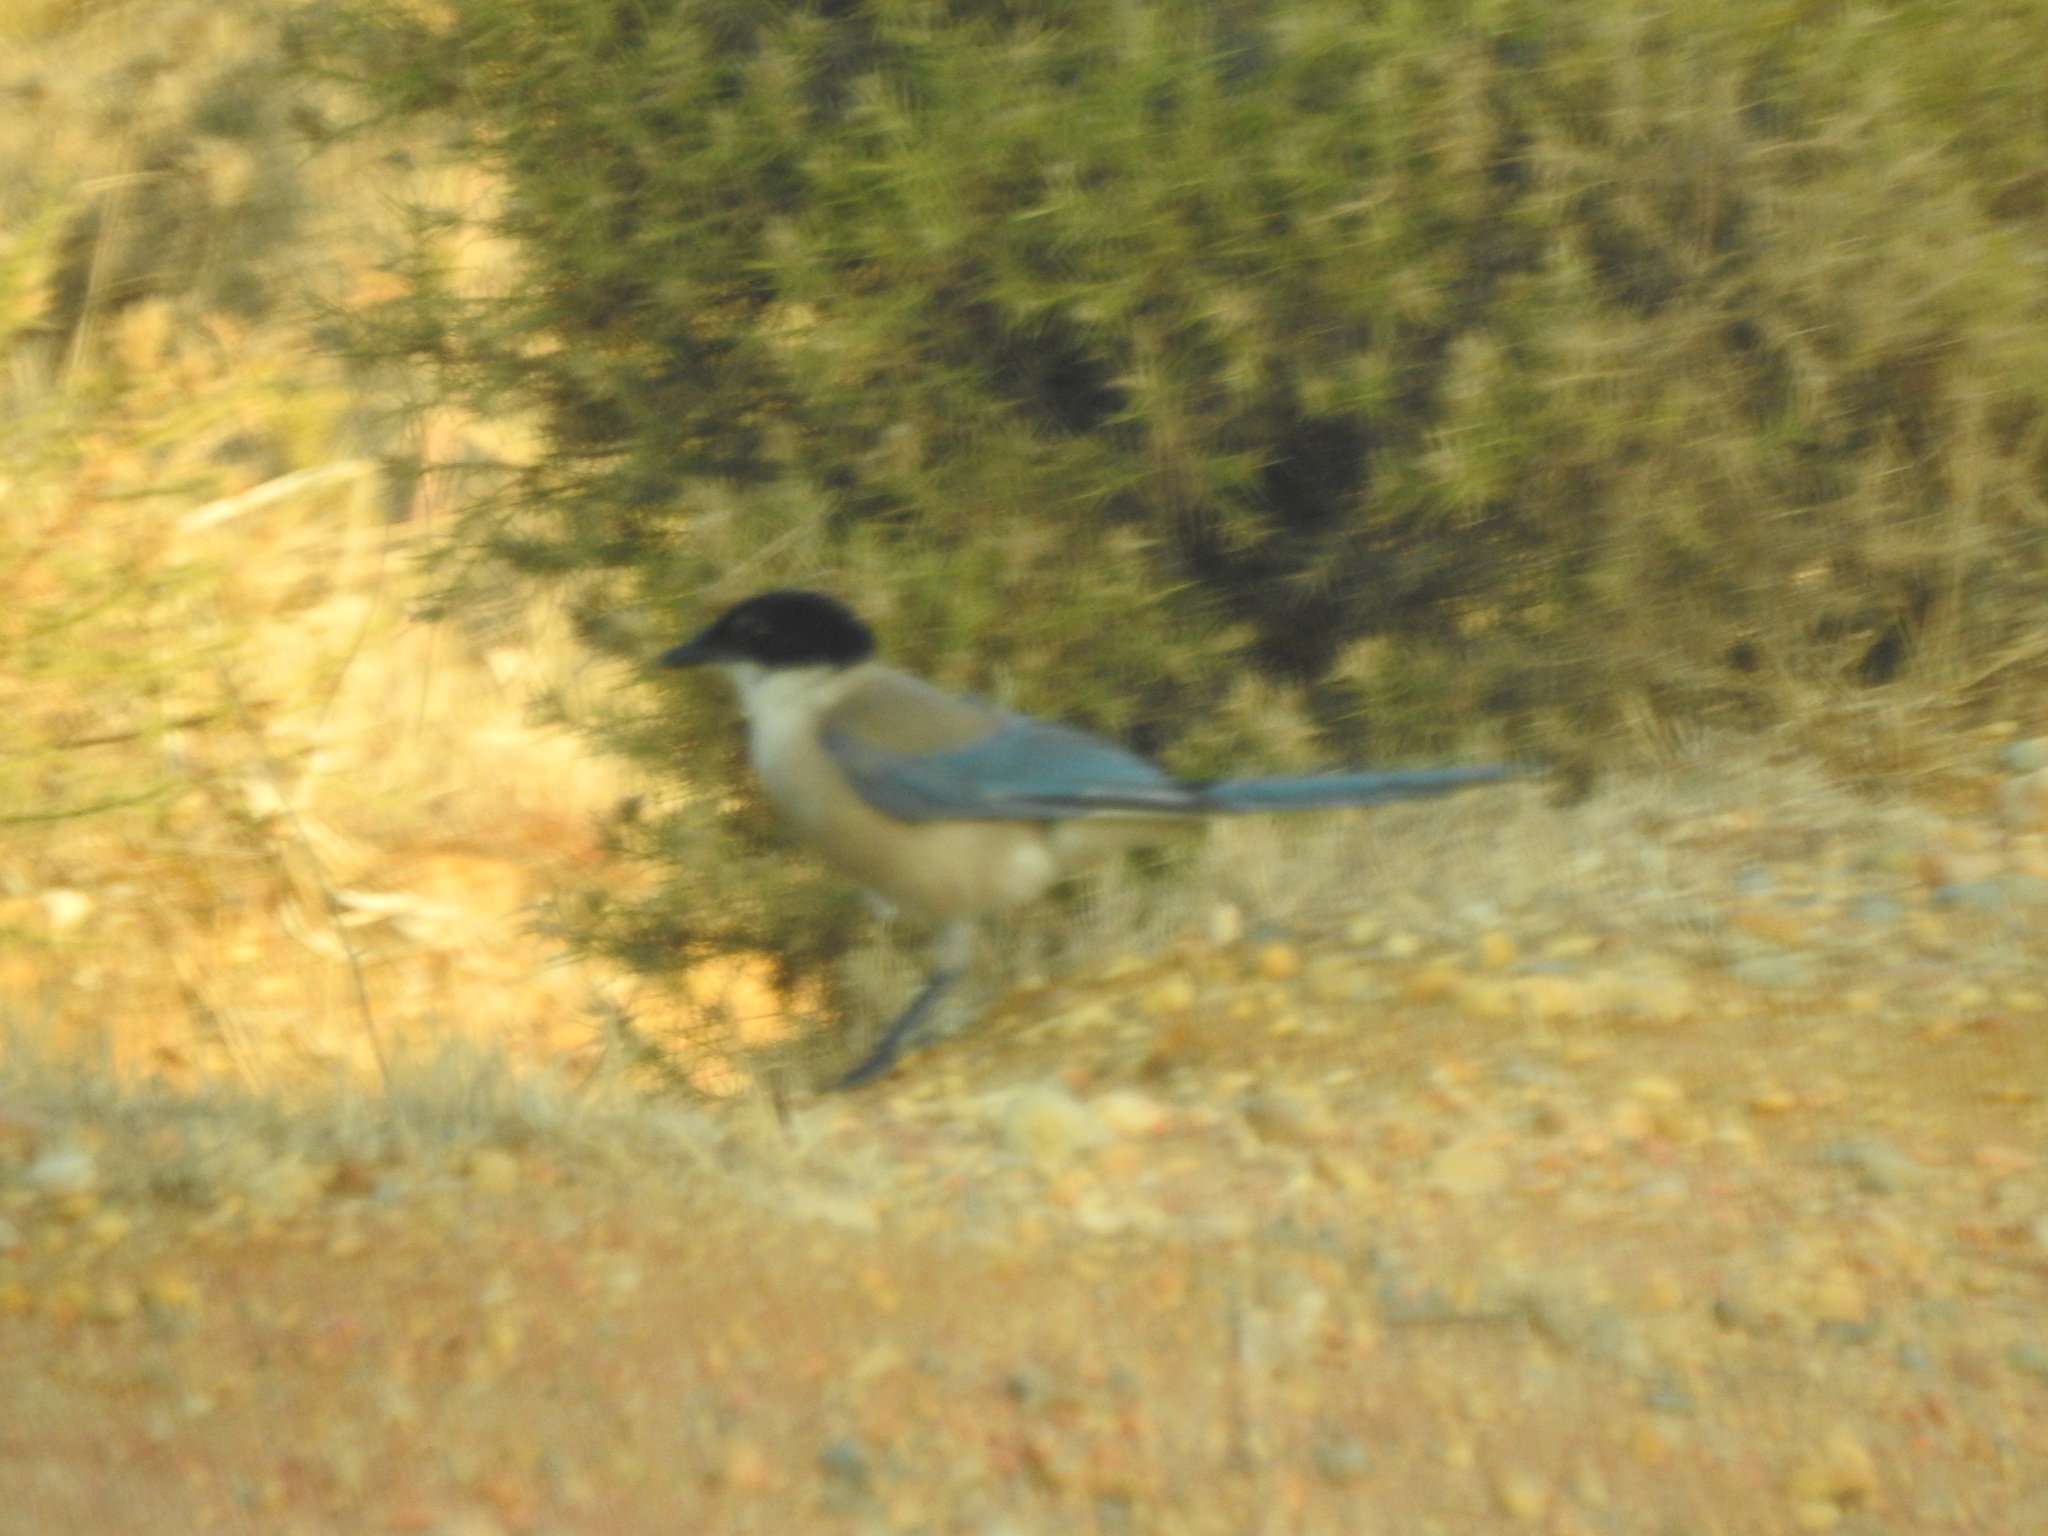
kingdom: Animalia
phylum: Chordata
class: Aves
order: Passeriformes
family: Corvidae
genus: Cyanopica
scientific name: Cyanopica cooki
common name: Iberian magpie
